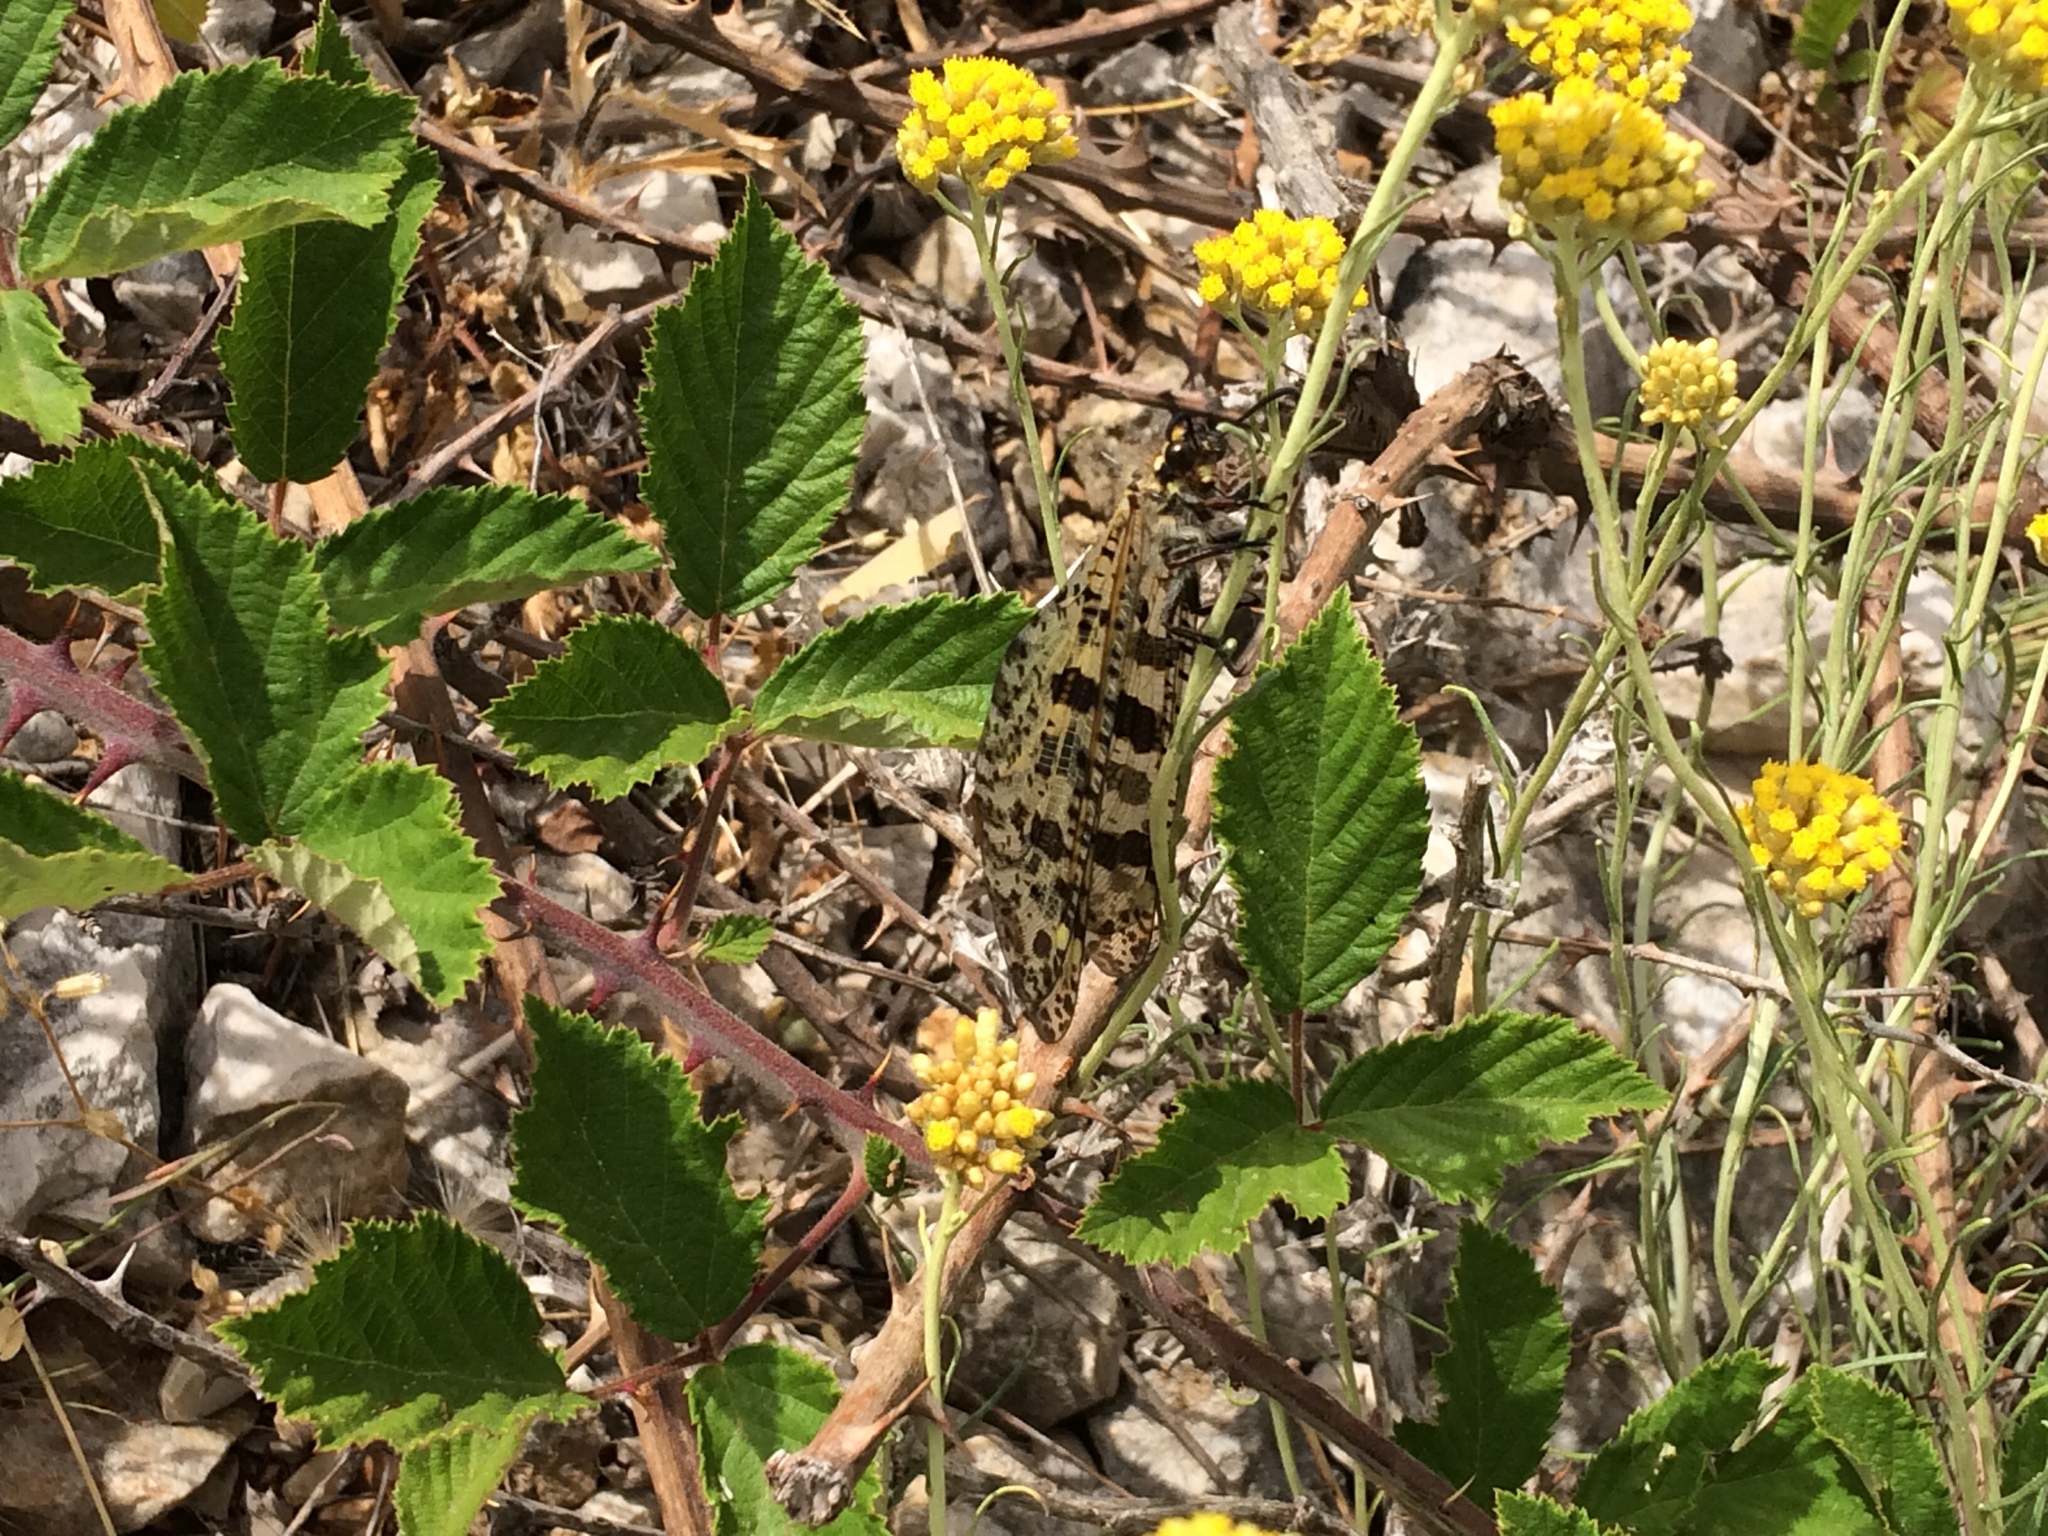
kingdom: Animalia
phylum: Arthropoda
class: Insecta
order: Neuroptera
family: Myrmeleontidae
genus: Palpares
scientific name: Palpares libelluloides
